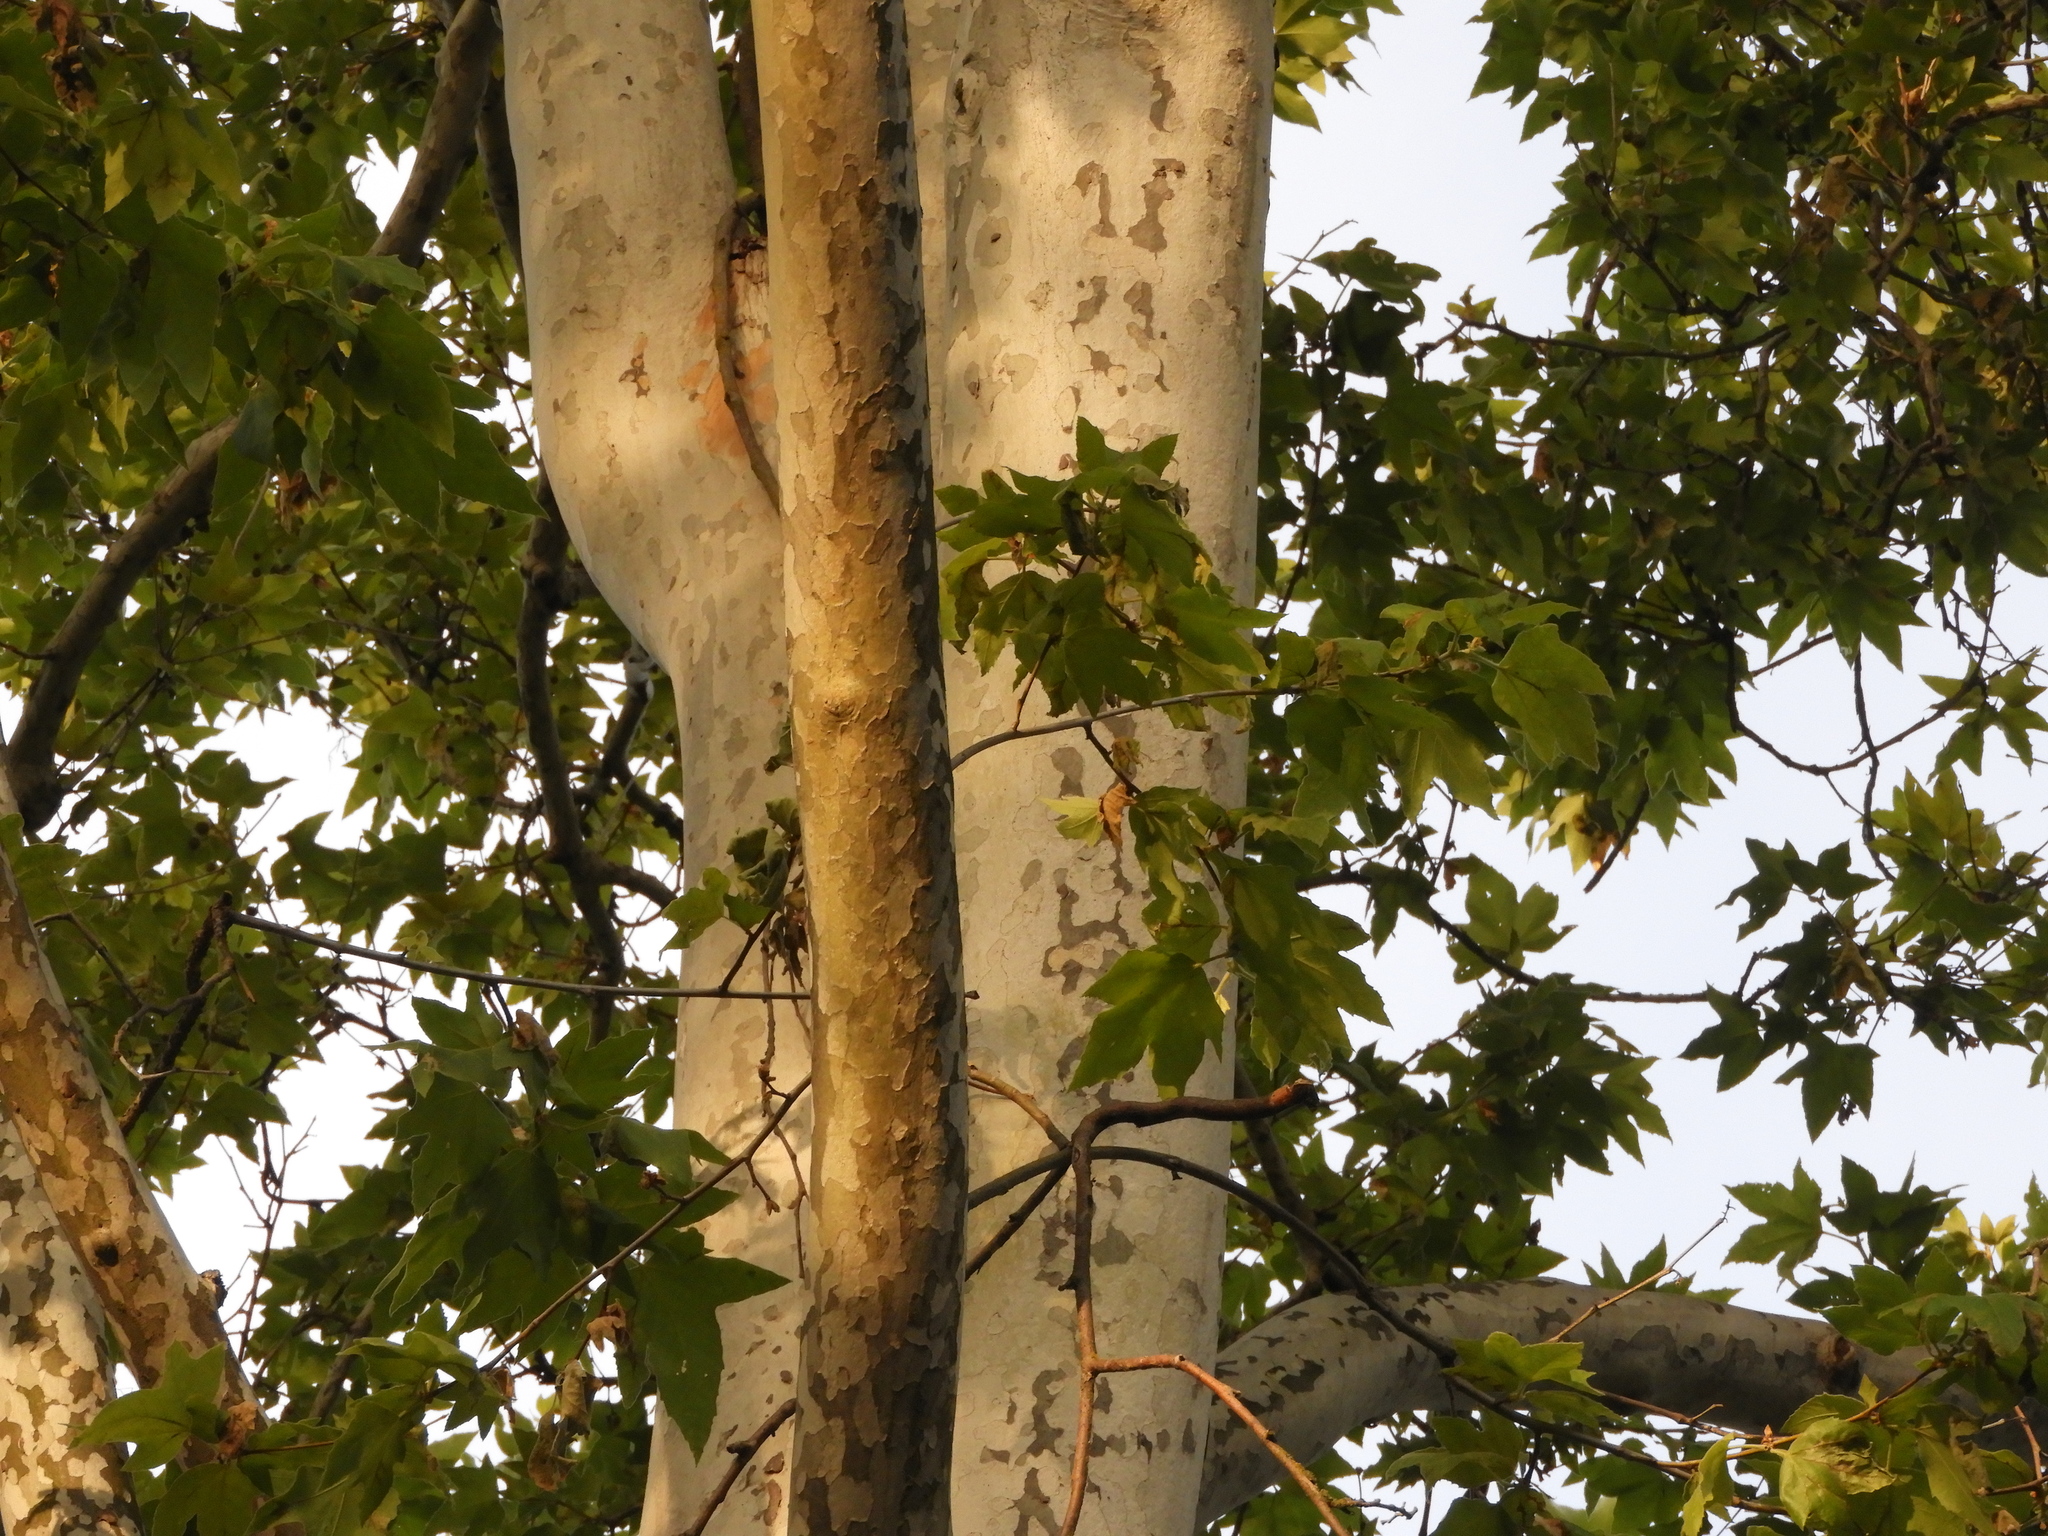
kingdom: Plantae
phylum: Tracheophyta
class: Magnoliopsida
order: Proteales
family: Platanaceae
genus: Platanus
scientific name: Platanus racemosa
